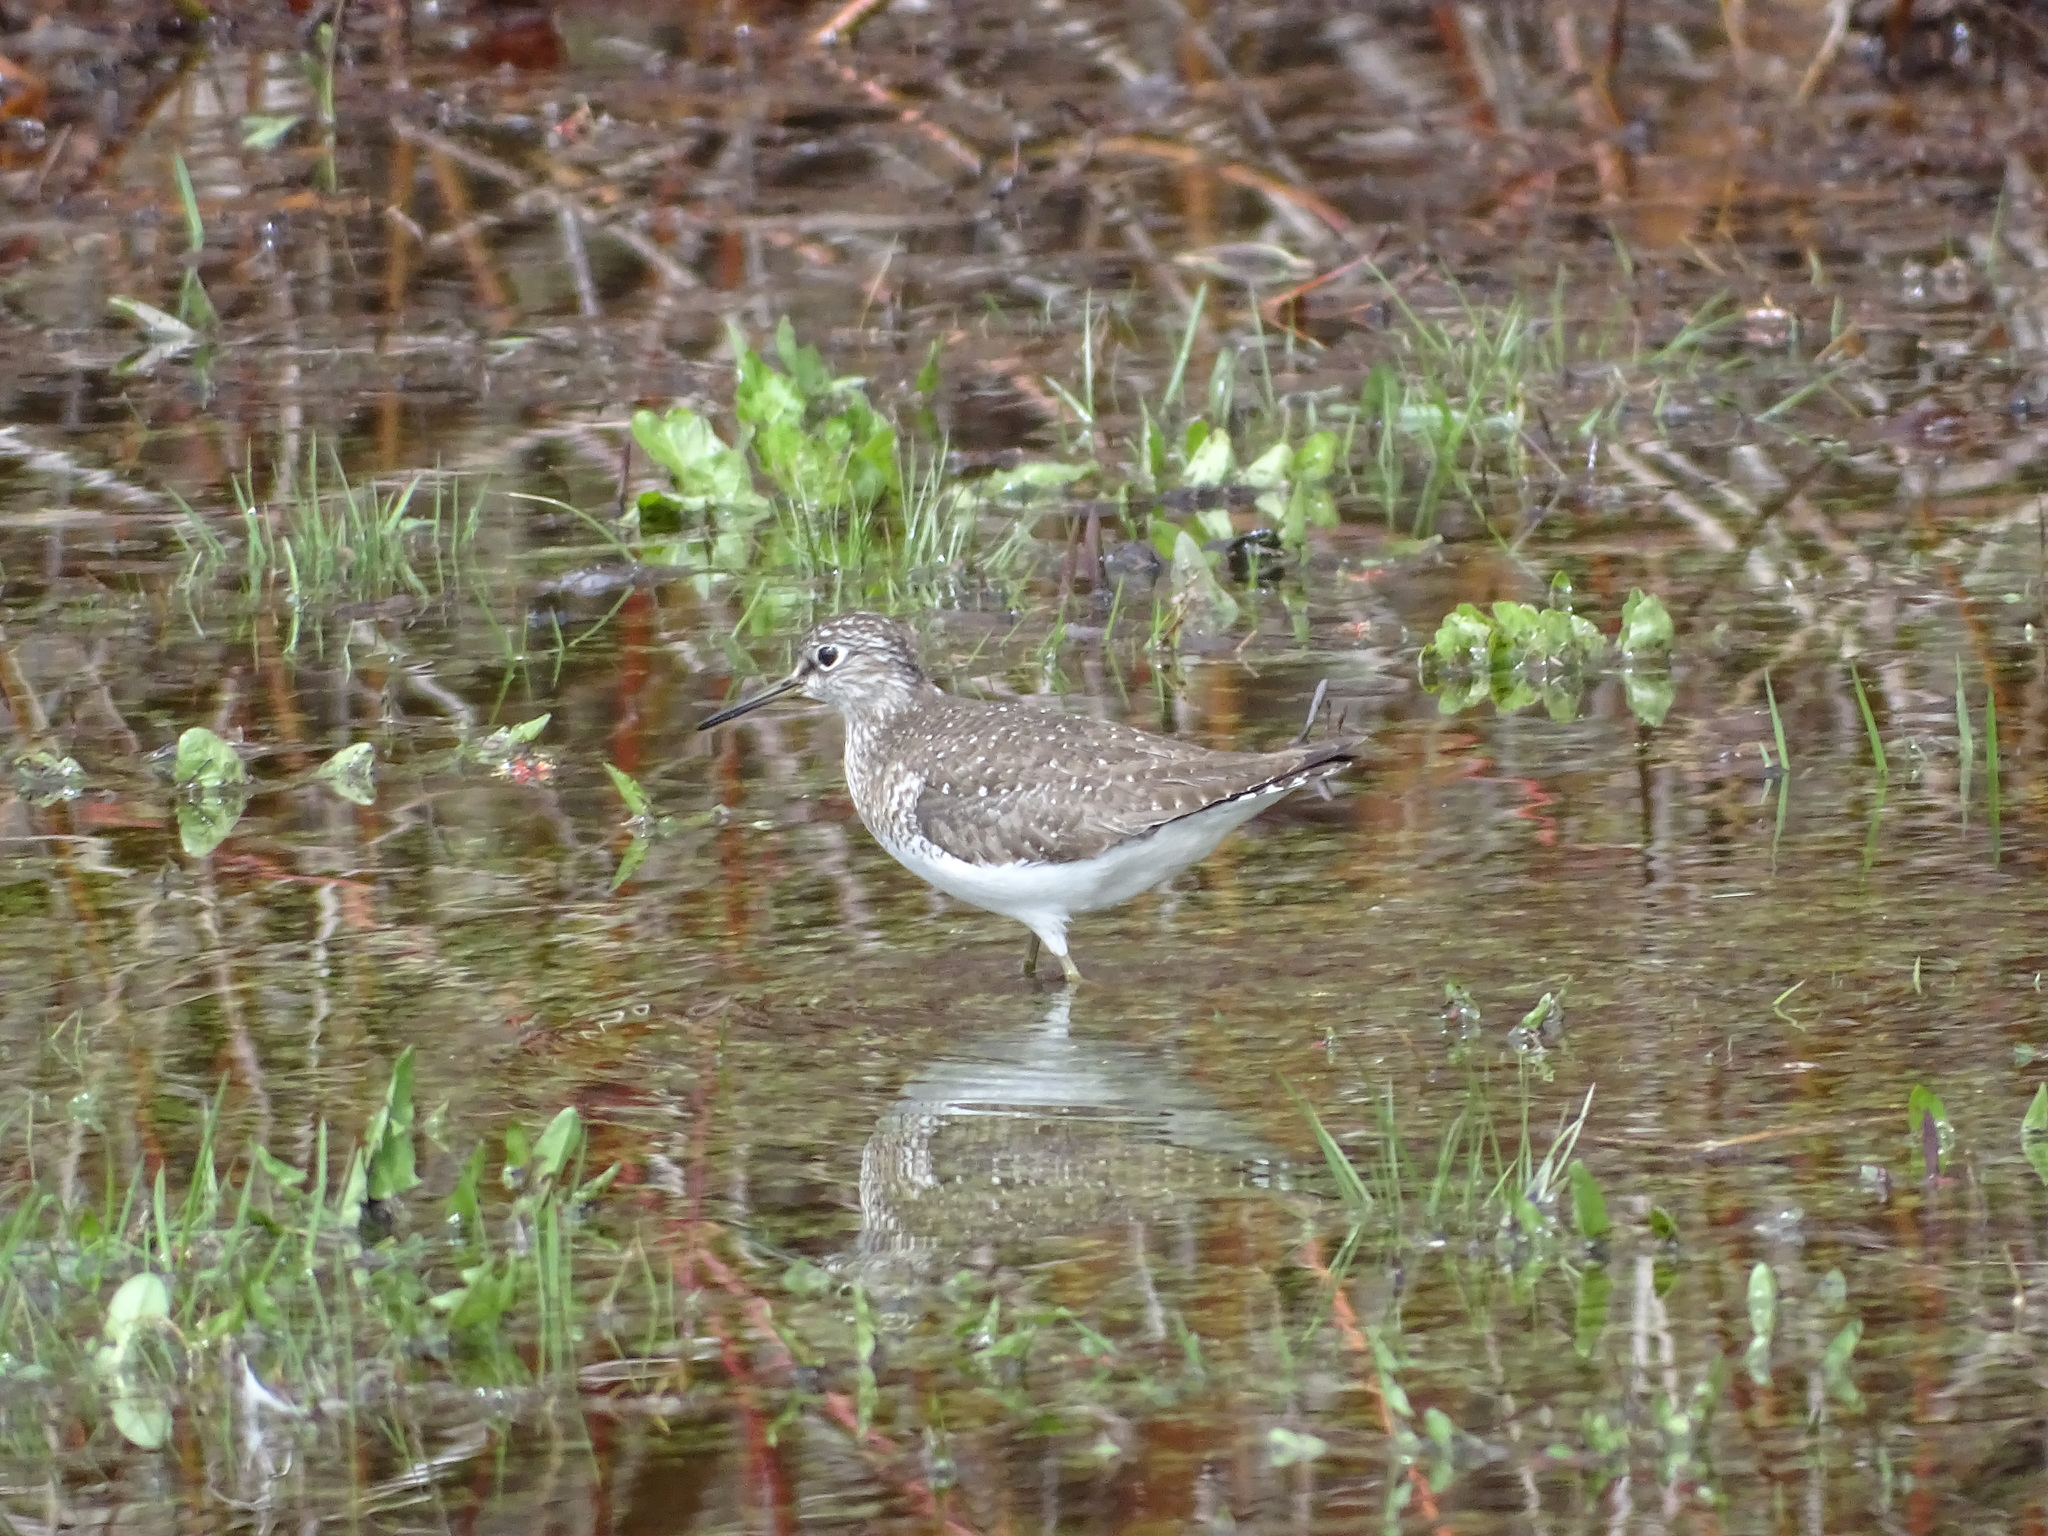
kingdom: Animalia
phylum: Chordata
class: Aves
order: Charadriiformes
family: Scolopacidae
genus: Tringa
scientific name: Tringa solitaria
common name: Solitary sandpiper
